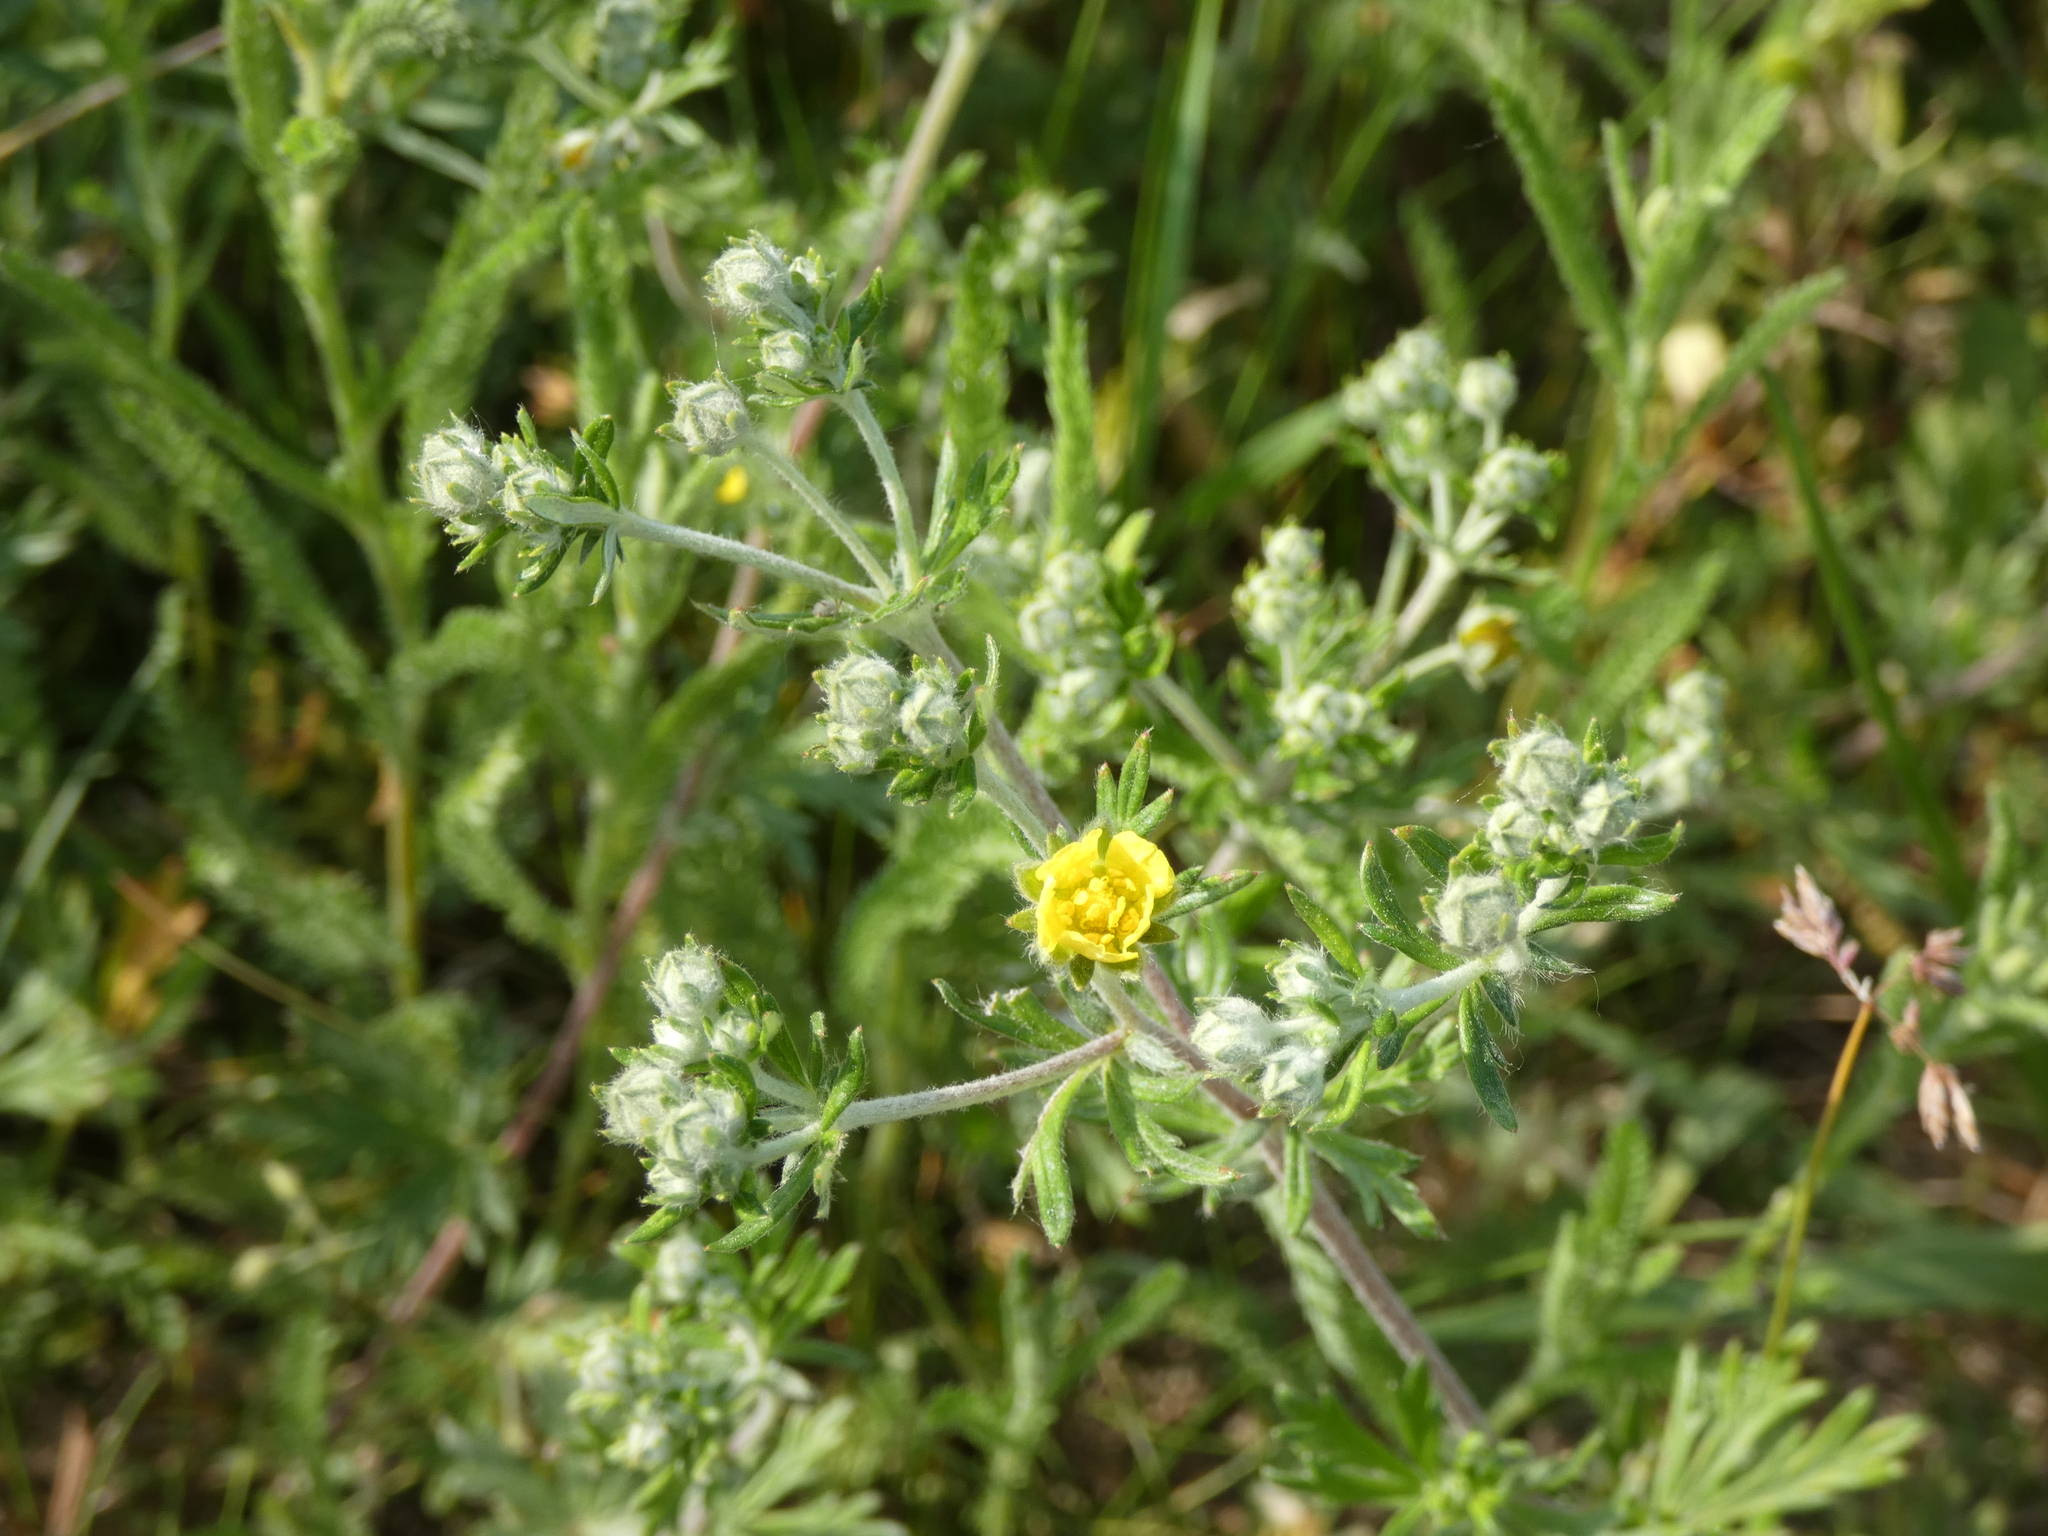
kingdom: Plantae
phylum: Tracheophyta
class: Magnoliopsida
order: Rosales
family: Rosaceae
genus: Potentilla
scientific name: Potentilla argentea
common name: Hoary cinquefoil
